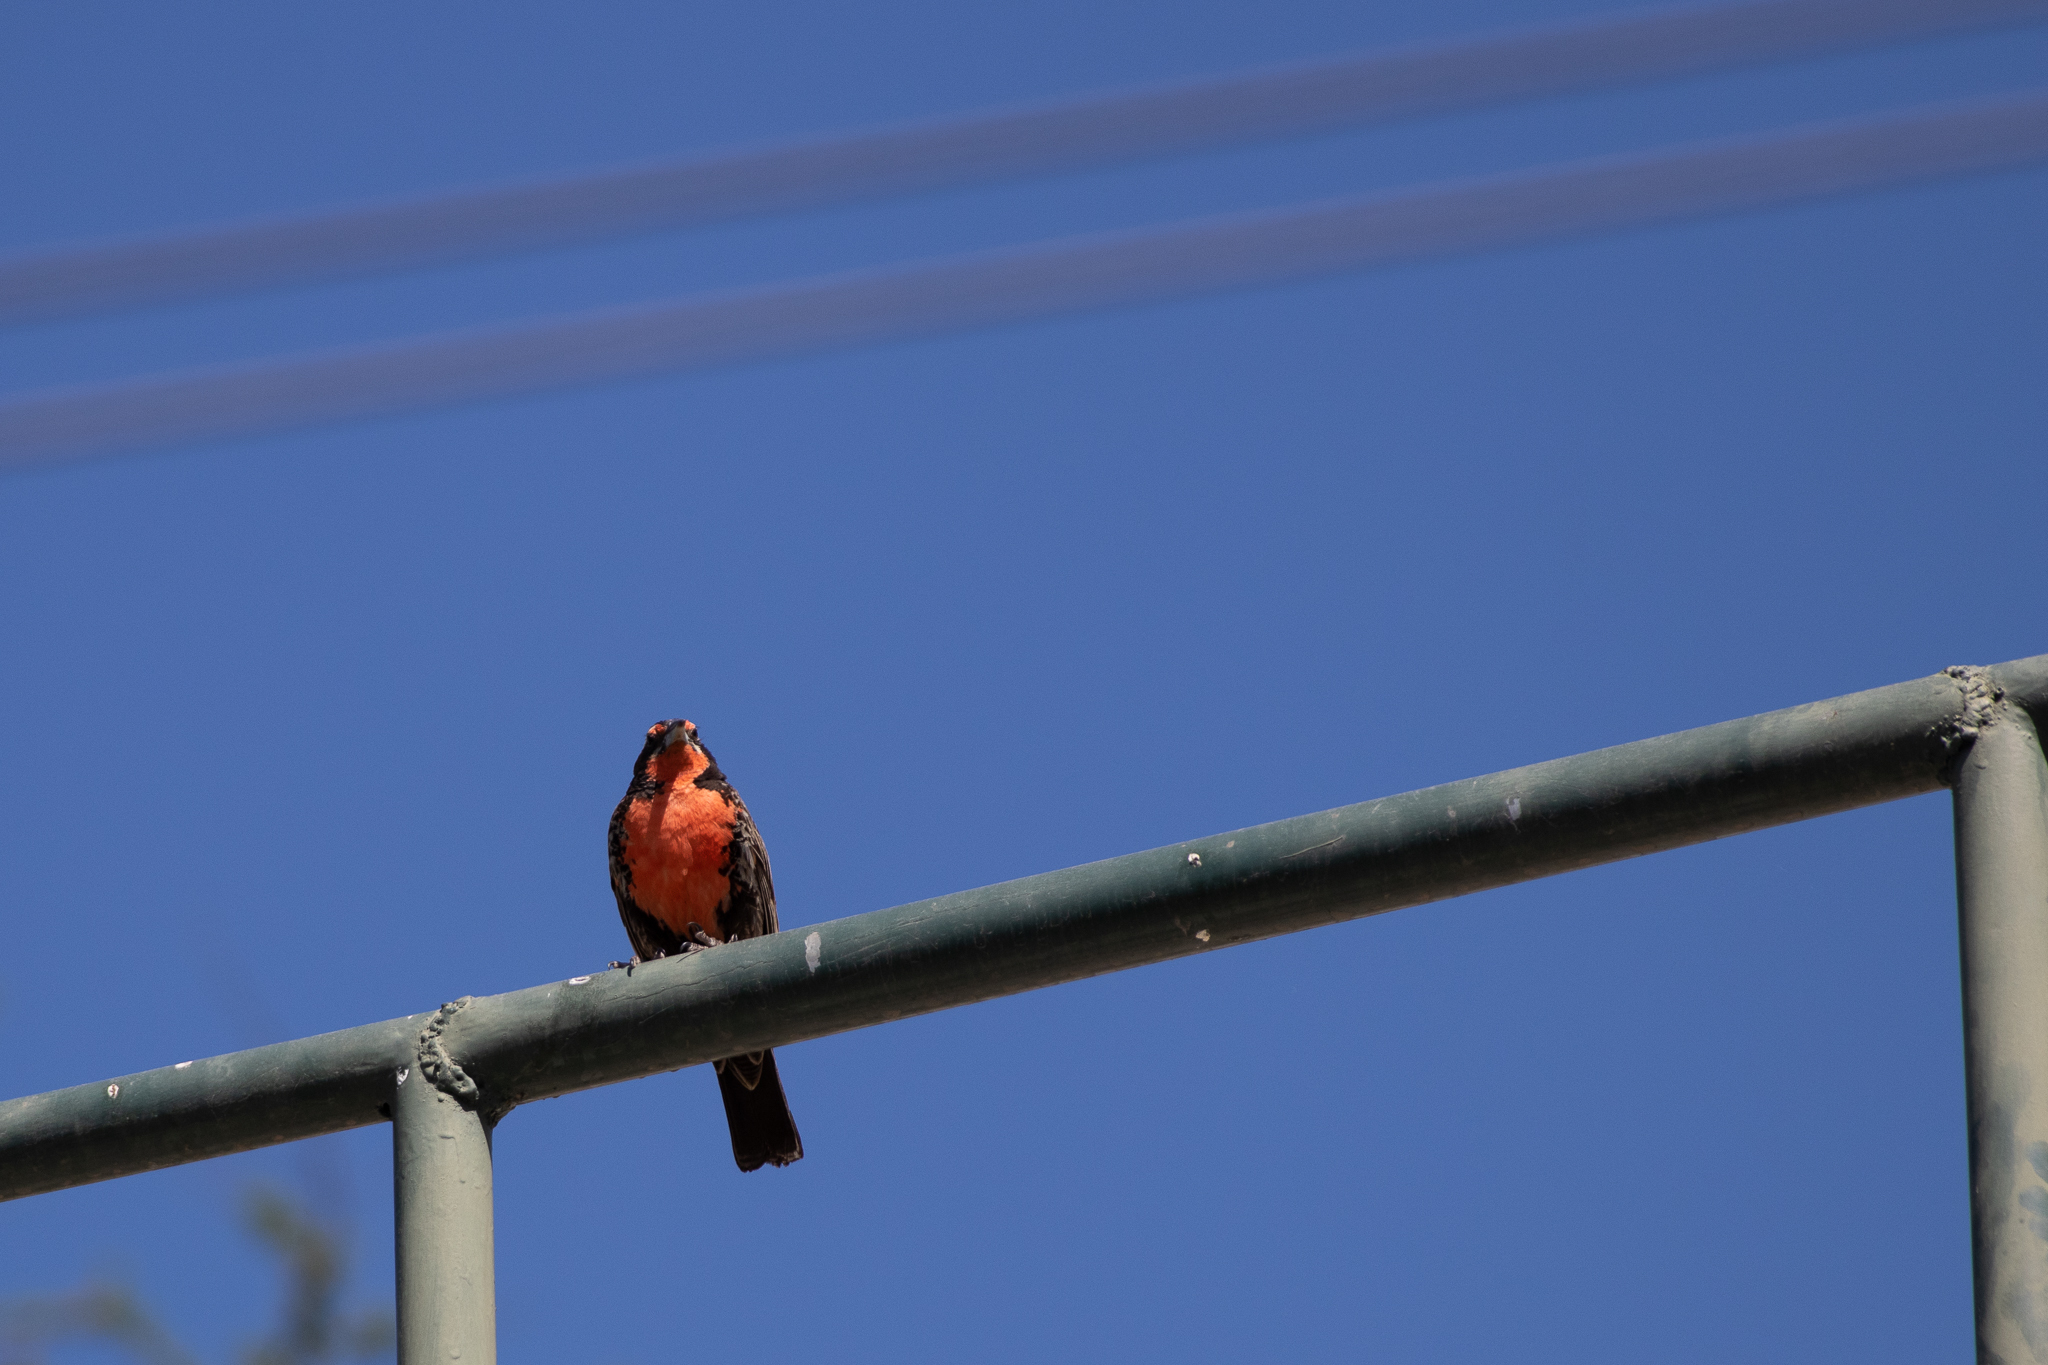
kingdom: Animalia
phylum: Chordata
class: Aves
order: Passeriformes
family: Icteridae
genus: Sturnella
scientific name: Sturnella loyca
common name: Long-tailed meadowlark
